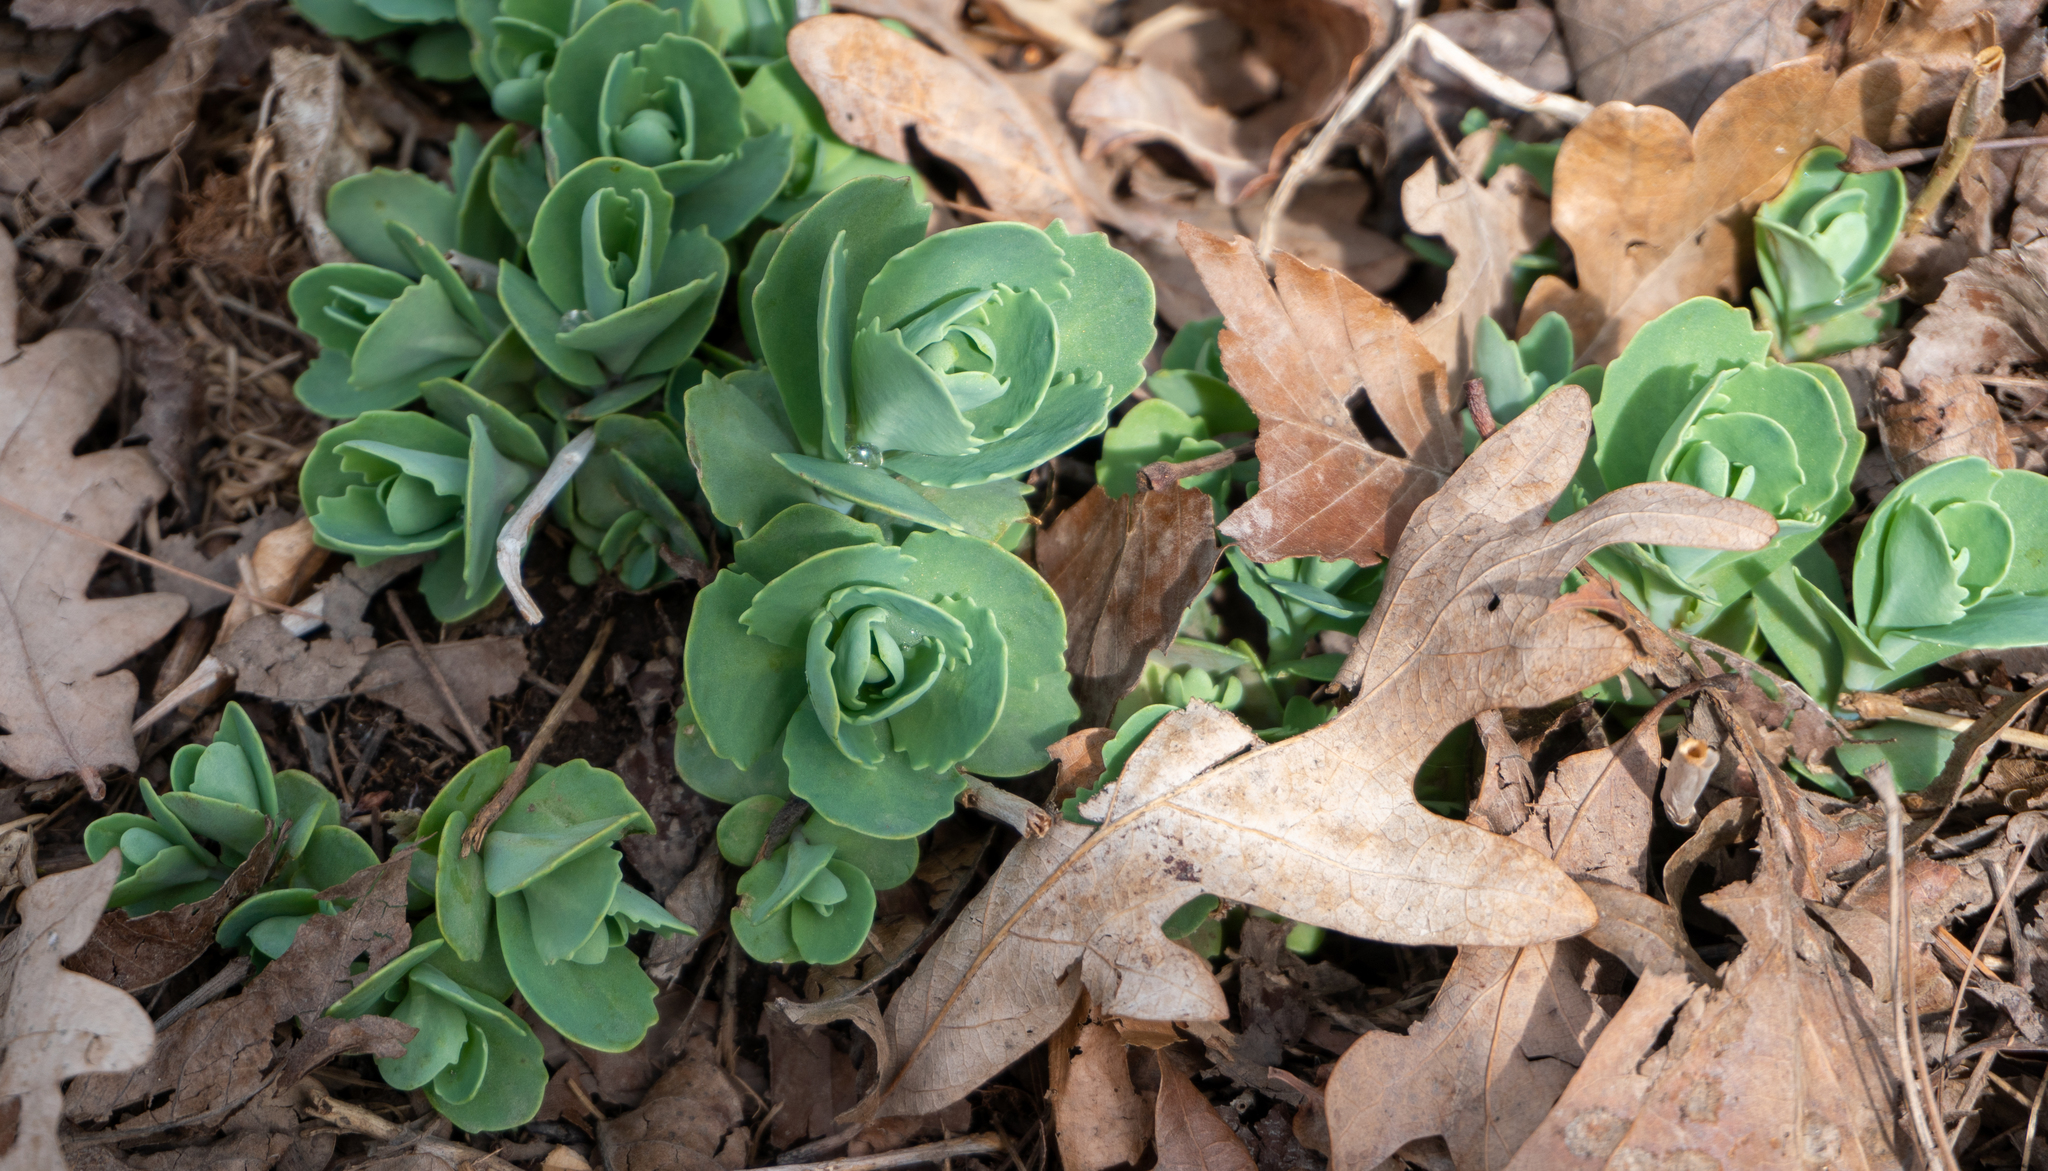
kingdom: Plantae
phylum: Tracheophyta
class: Magnoliopsida
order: Saxifragales
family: Crassulaceae
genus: Hylotelephium
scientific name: Hylotelephium telephium
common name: Live-forever
